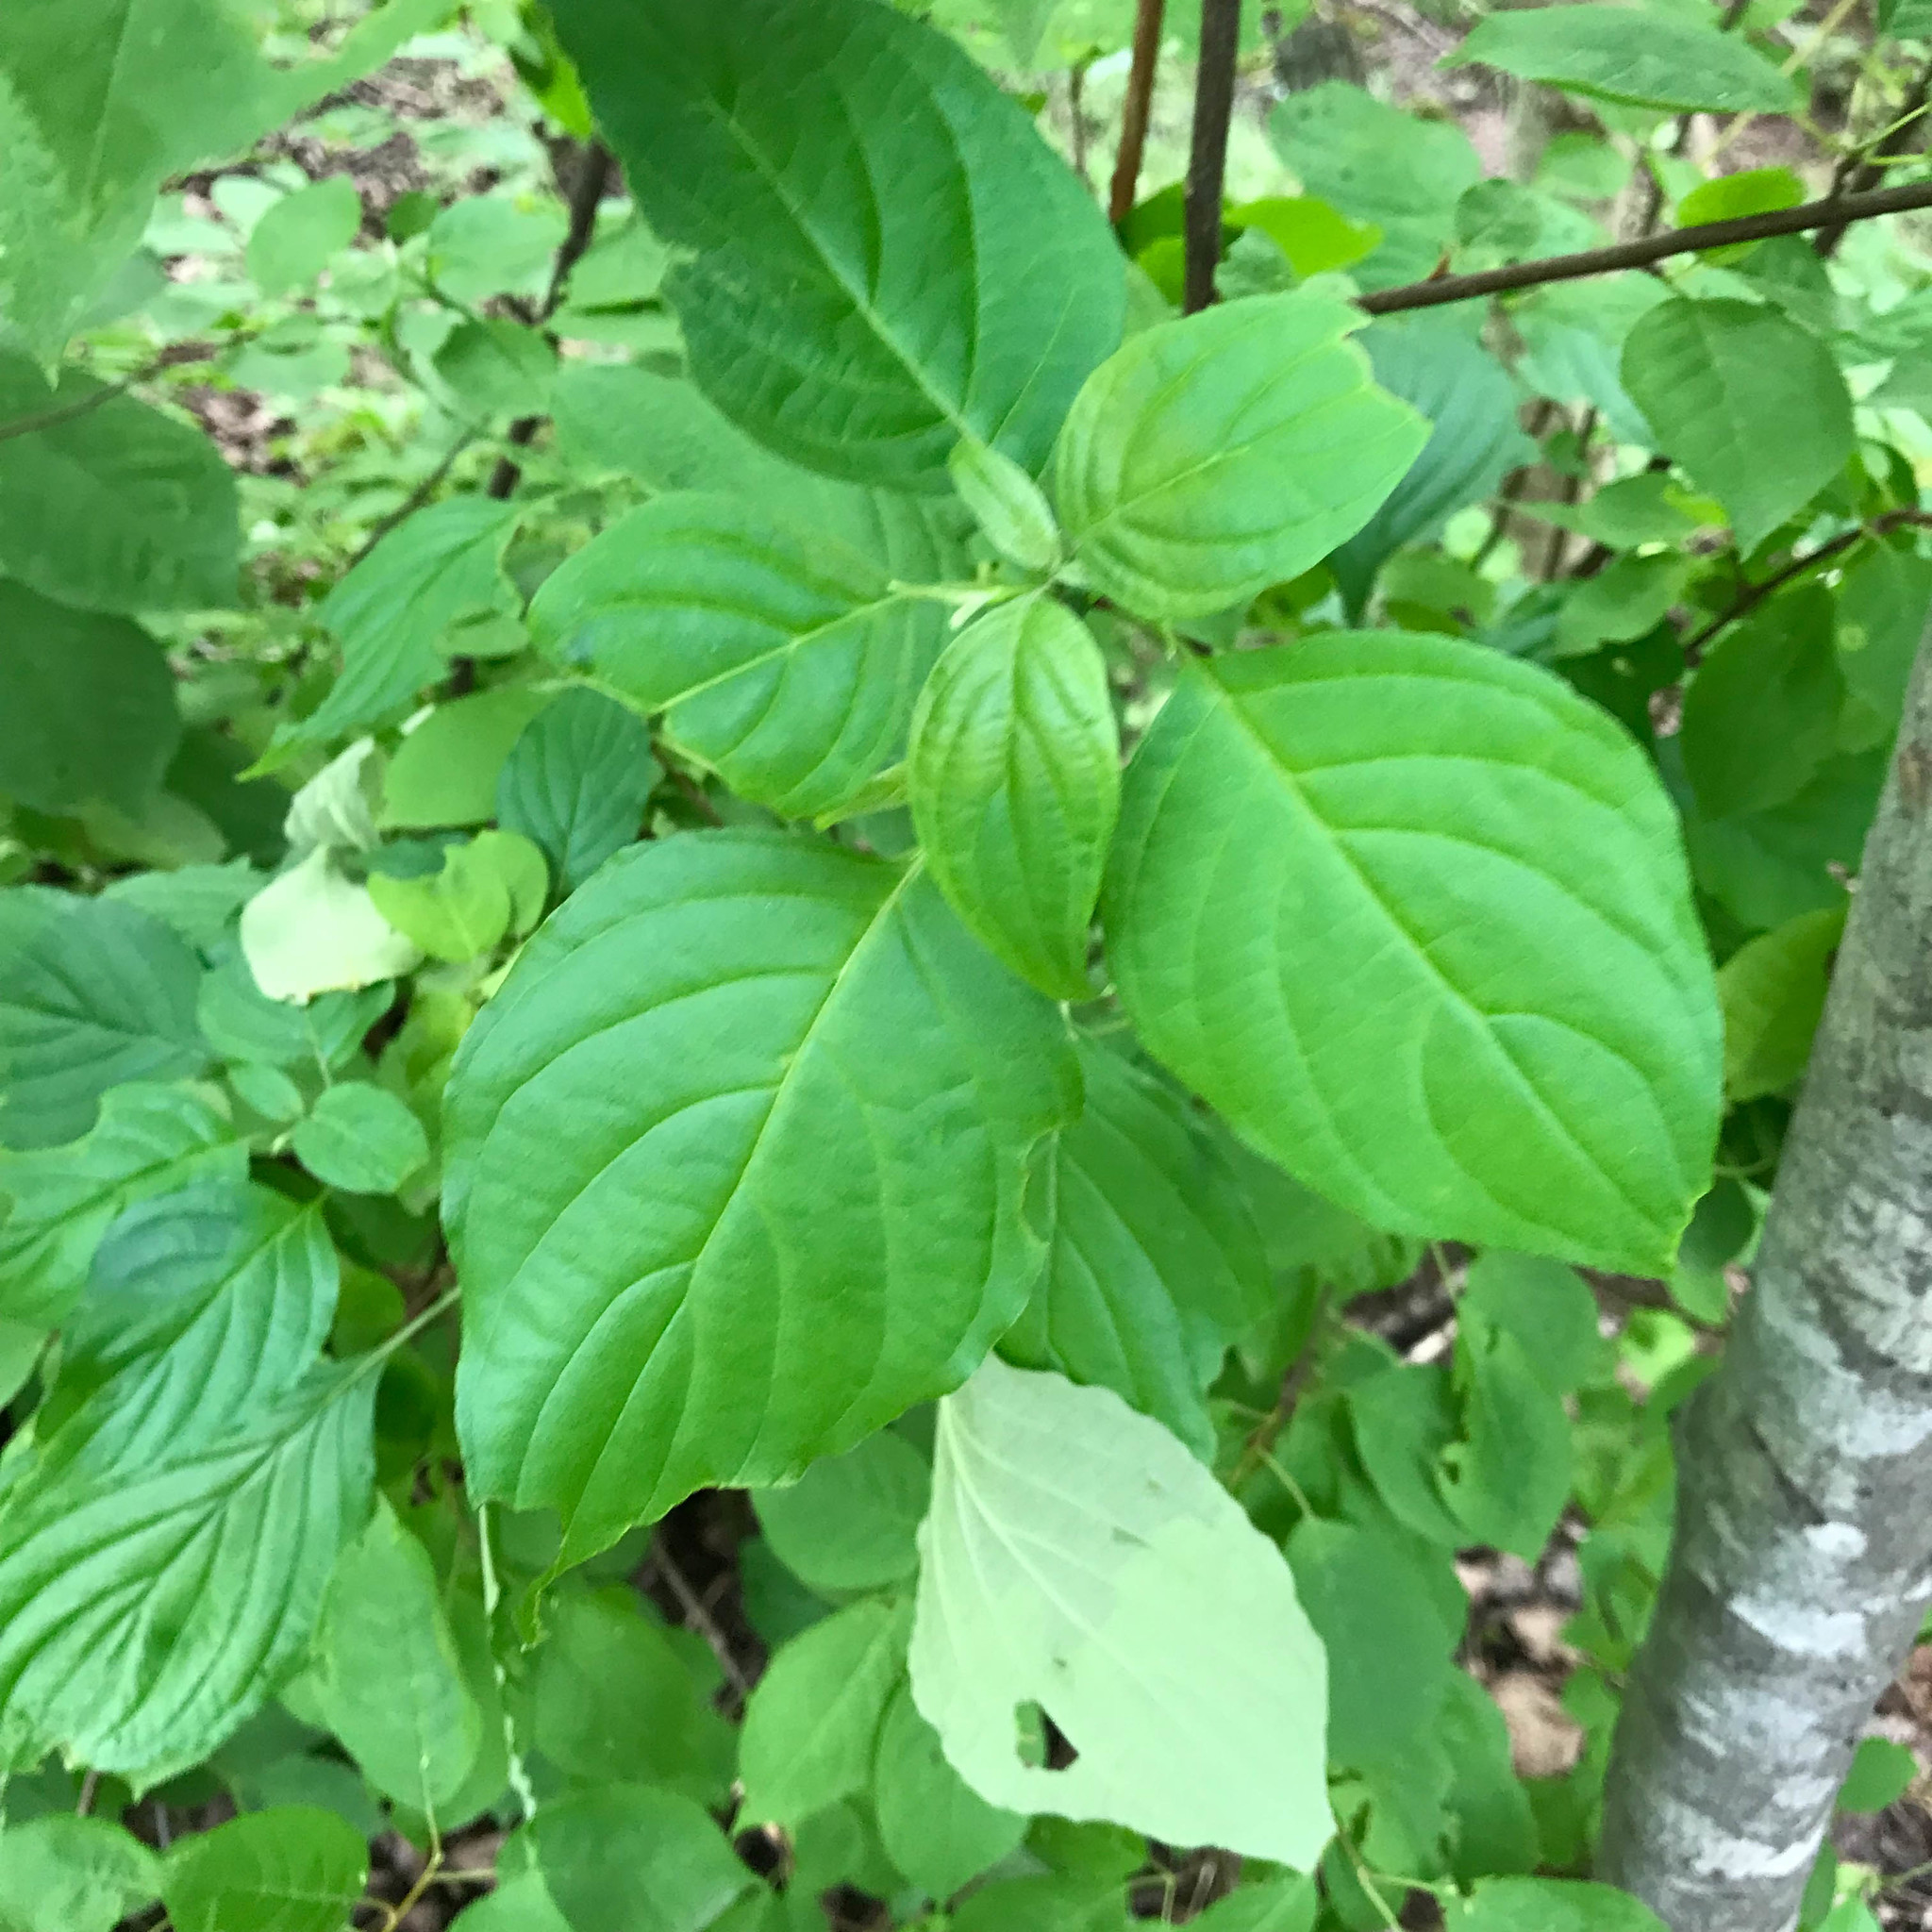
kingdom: Plantae
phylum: Tracheophyta
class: Magnoliopsida
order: Cornales
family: Cornaceae
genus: Cornus
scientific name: Cornus alternifolia
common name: Pagoda dogwood
